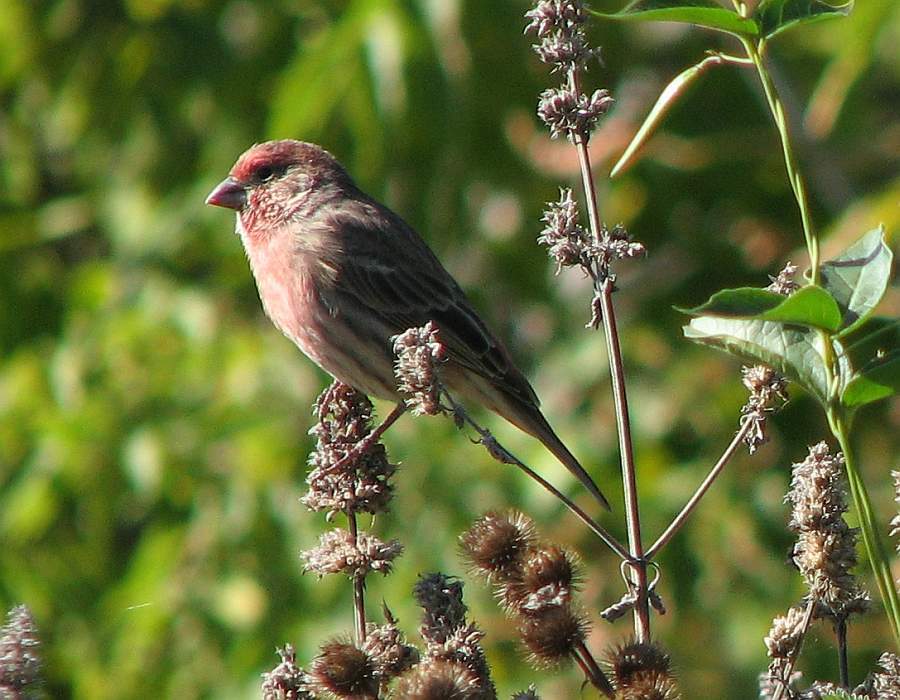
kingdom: Animalia
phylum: Chordata
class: Aves
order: Passeriformes
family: Fringillidae
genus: Haemorhous
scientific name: Haemorhous mexicanus
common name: House finch
